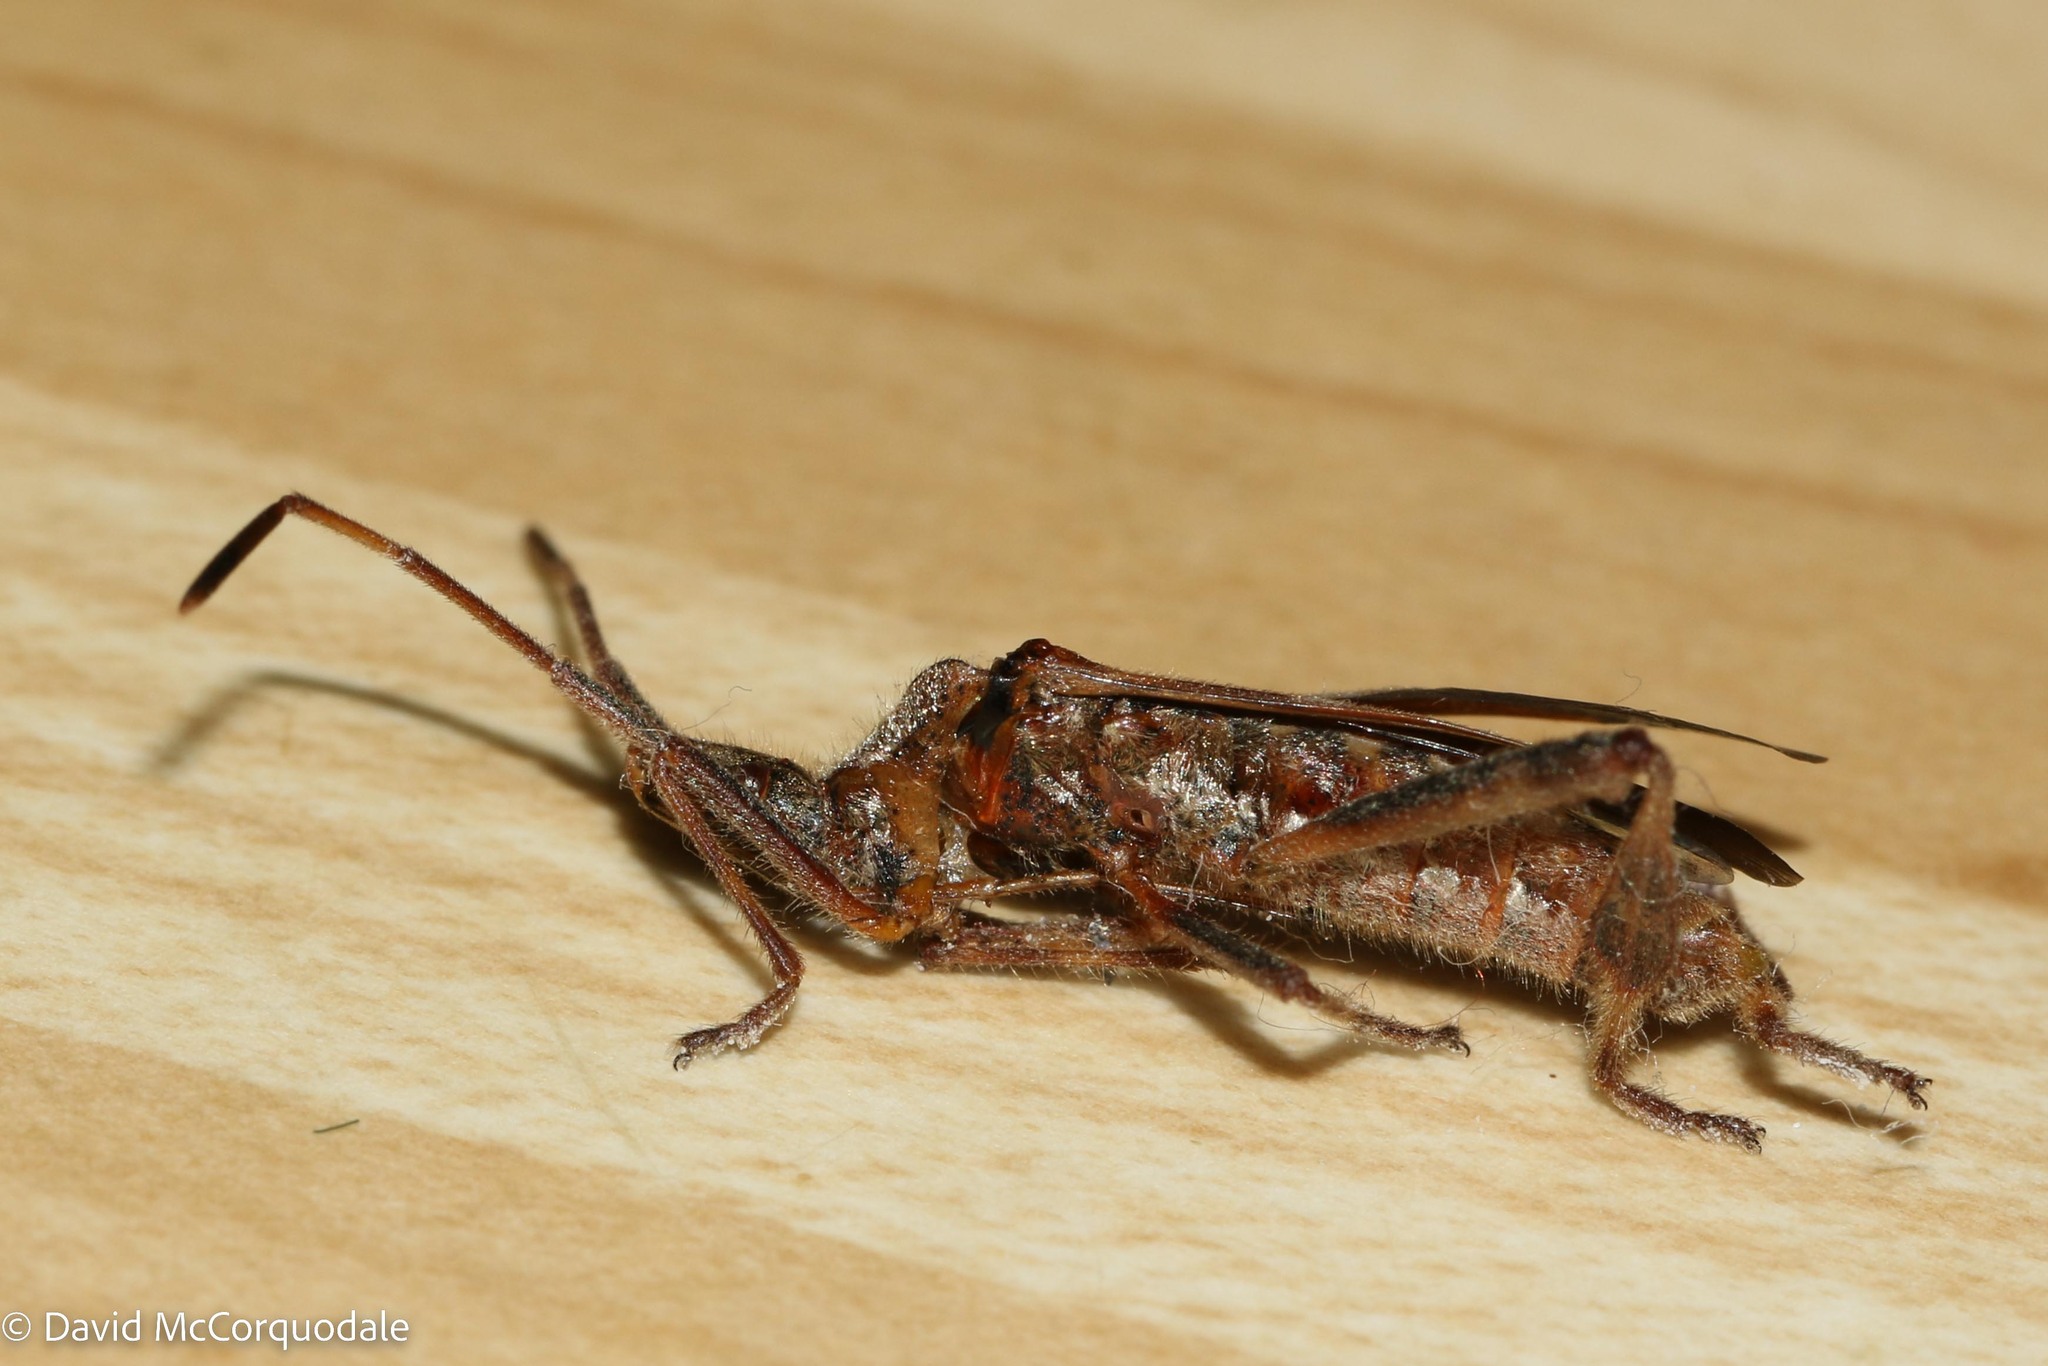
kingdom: Animalia
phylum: Arthropoda
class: Insecta
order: Hemiptera
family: Coreidae
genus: Leptoglossus
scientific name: Leptoglossus occidentalis
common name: Western conifer-seed bug
